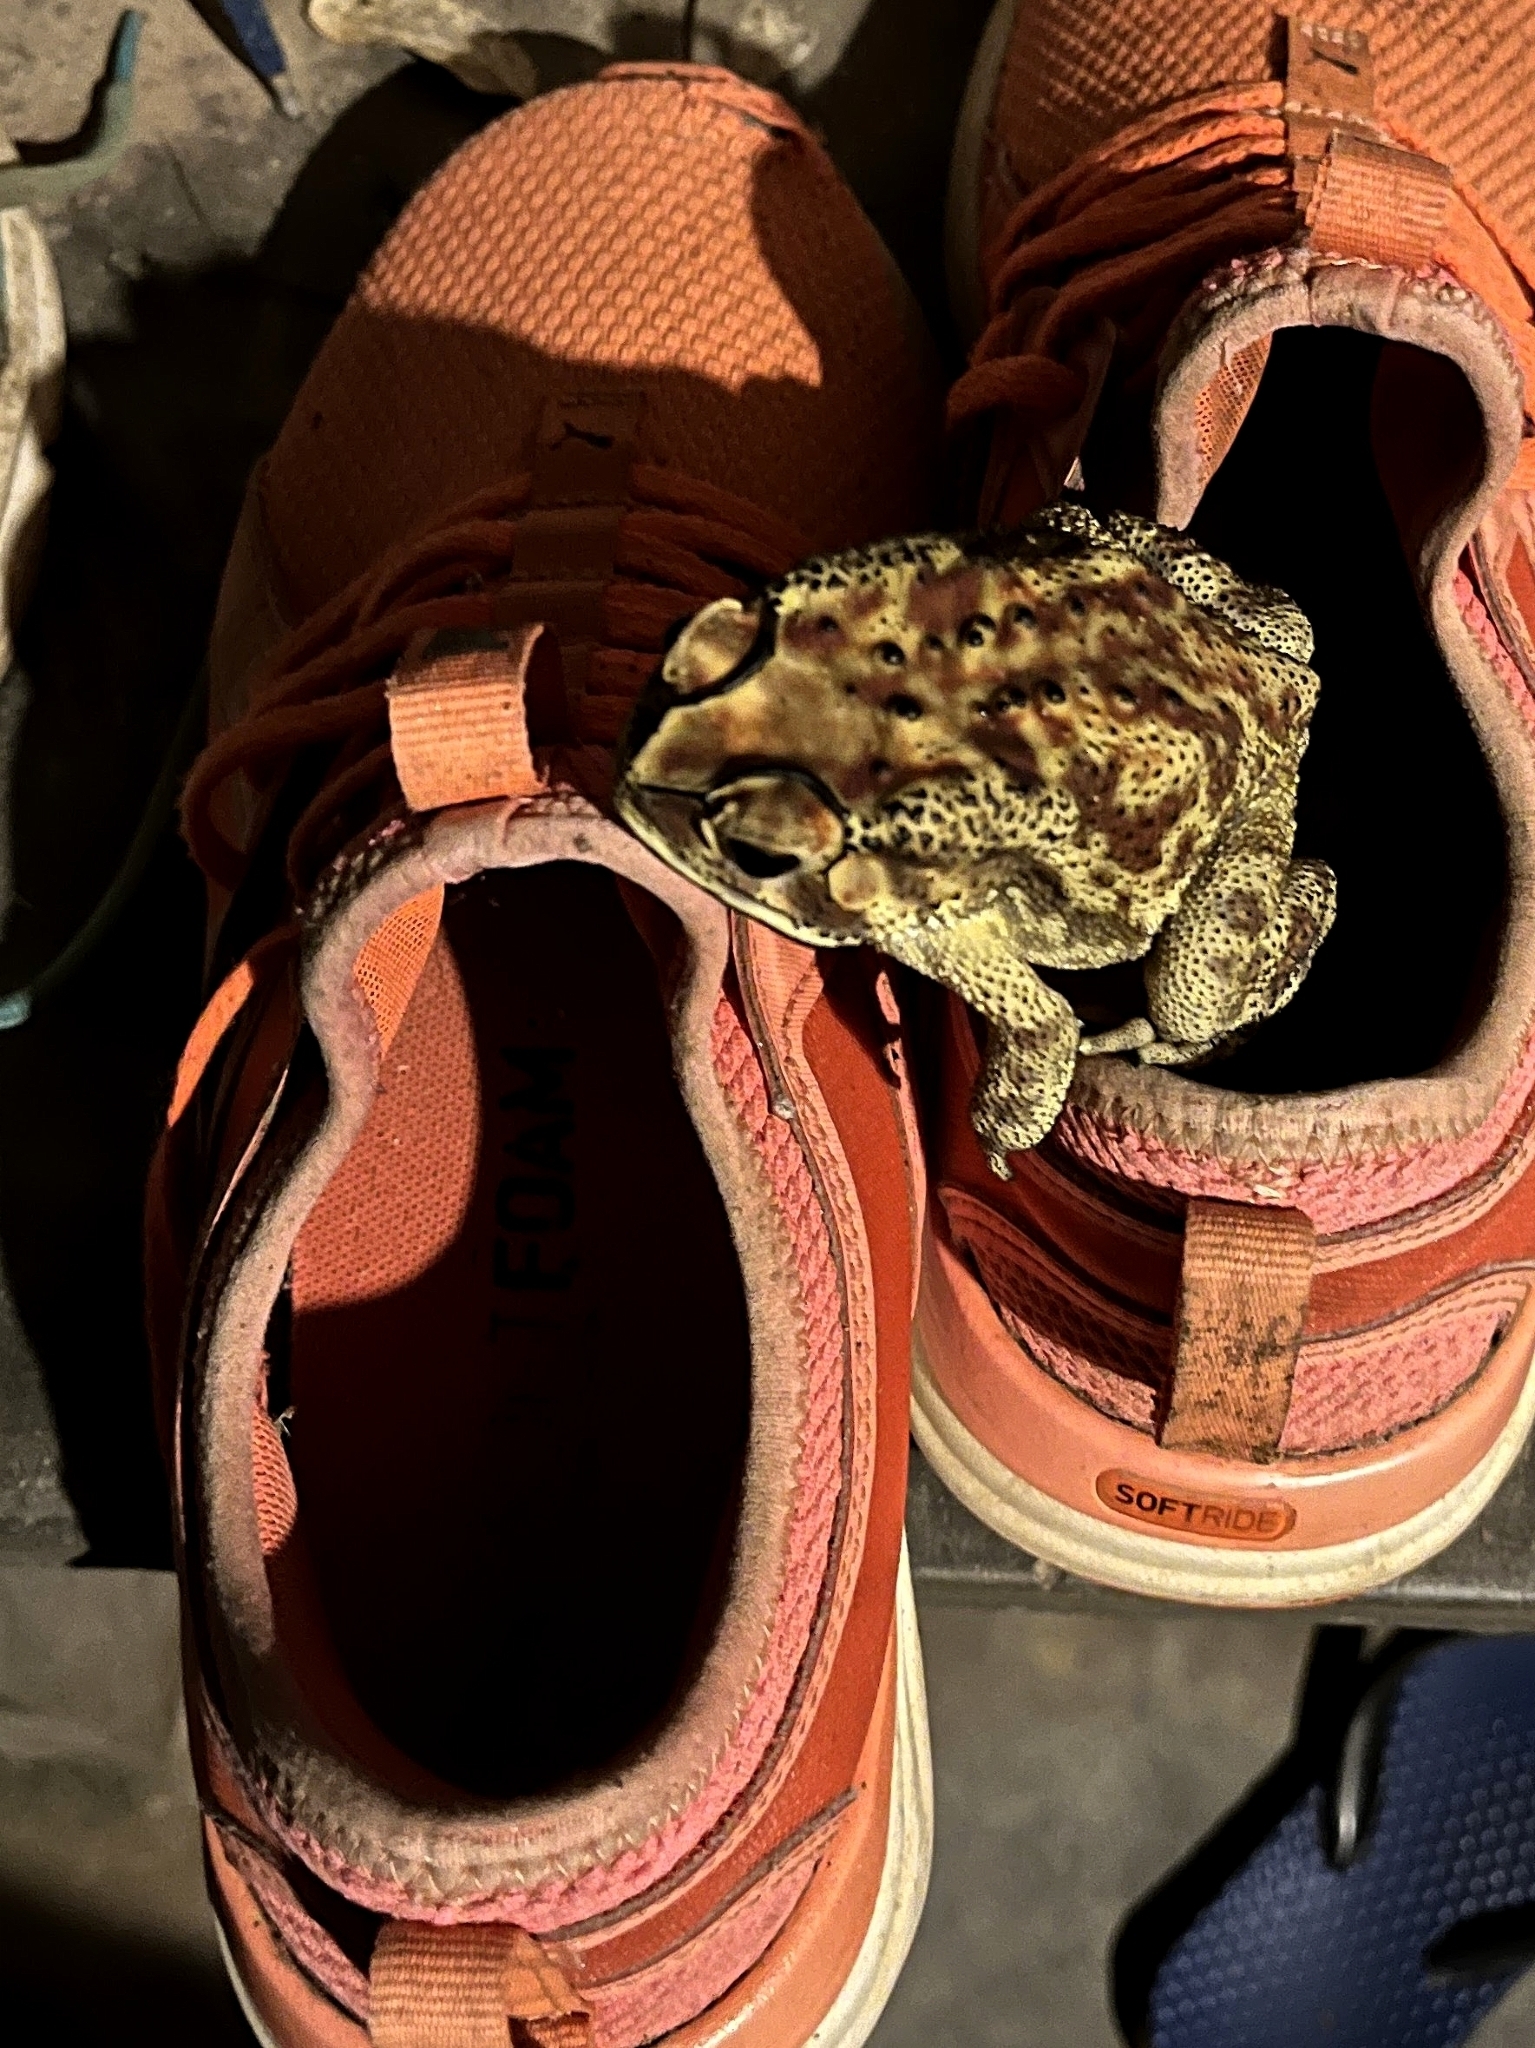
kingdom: Animalia
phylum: Chordata
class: Amphibia
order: Anura
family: Bufonidae
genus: Duttaphrynus
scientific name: Duttaphrynus melanostictus
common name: Common sunda toad
